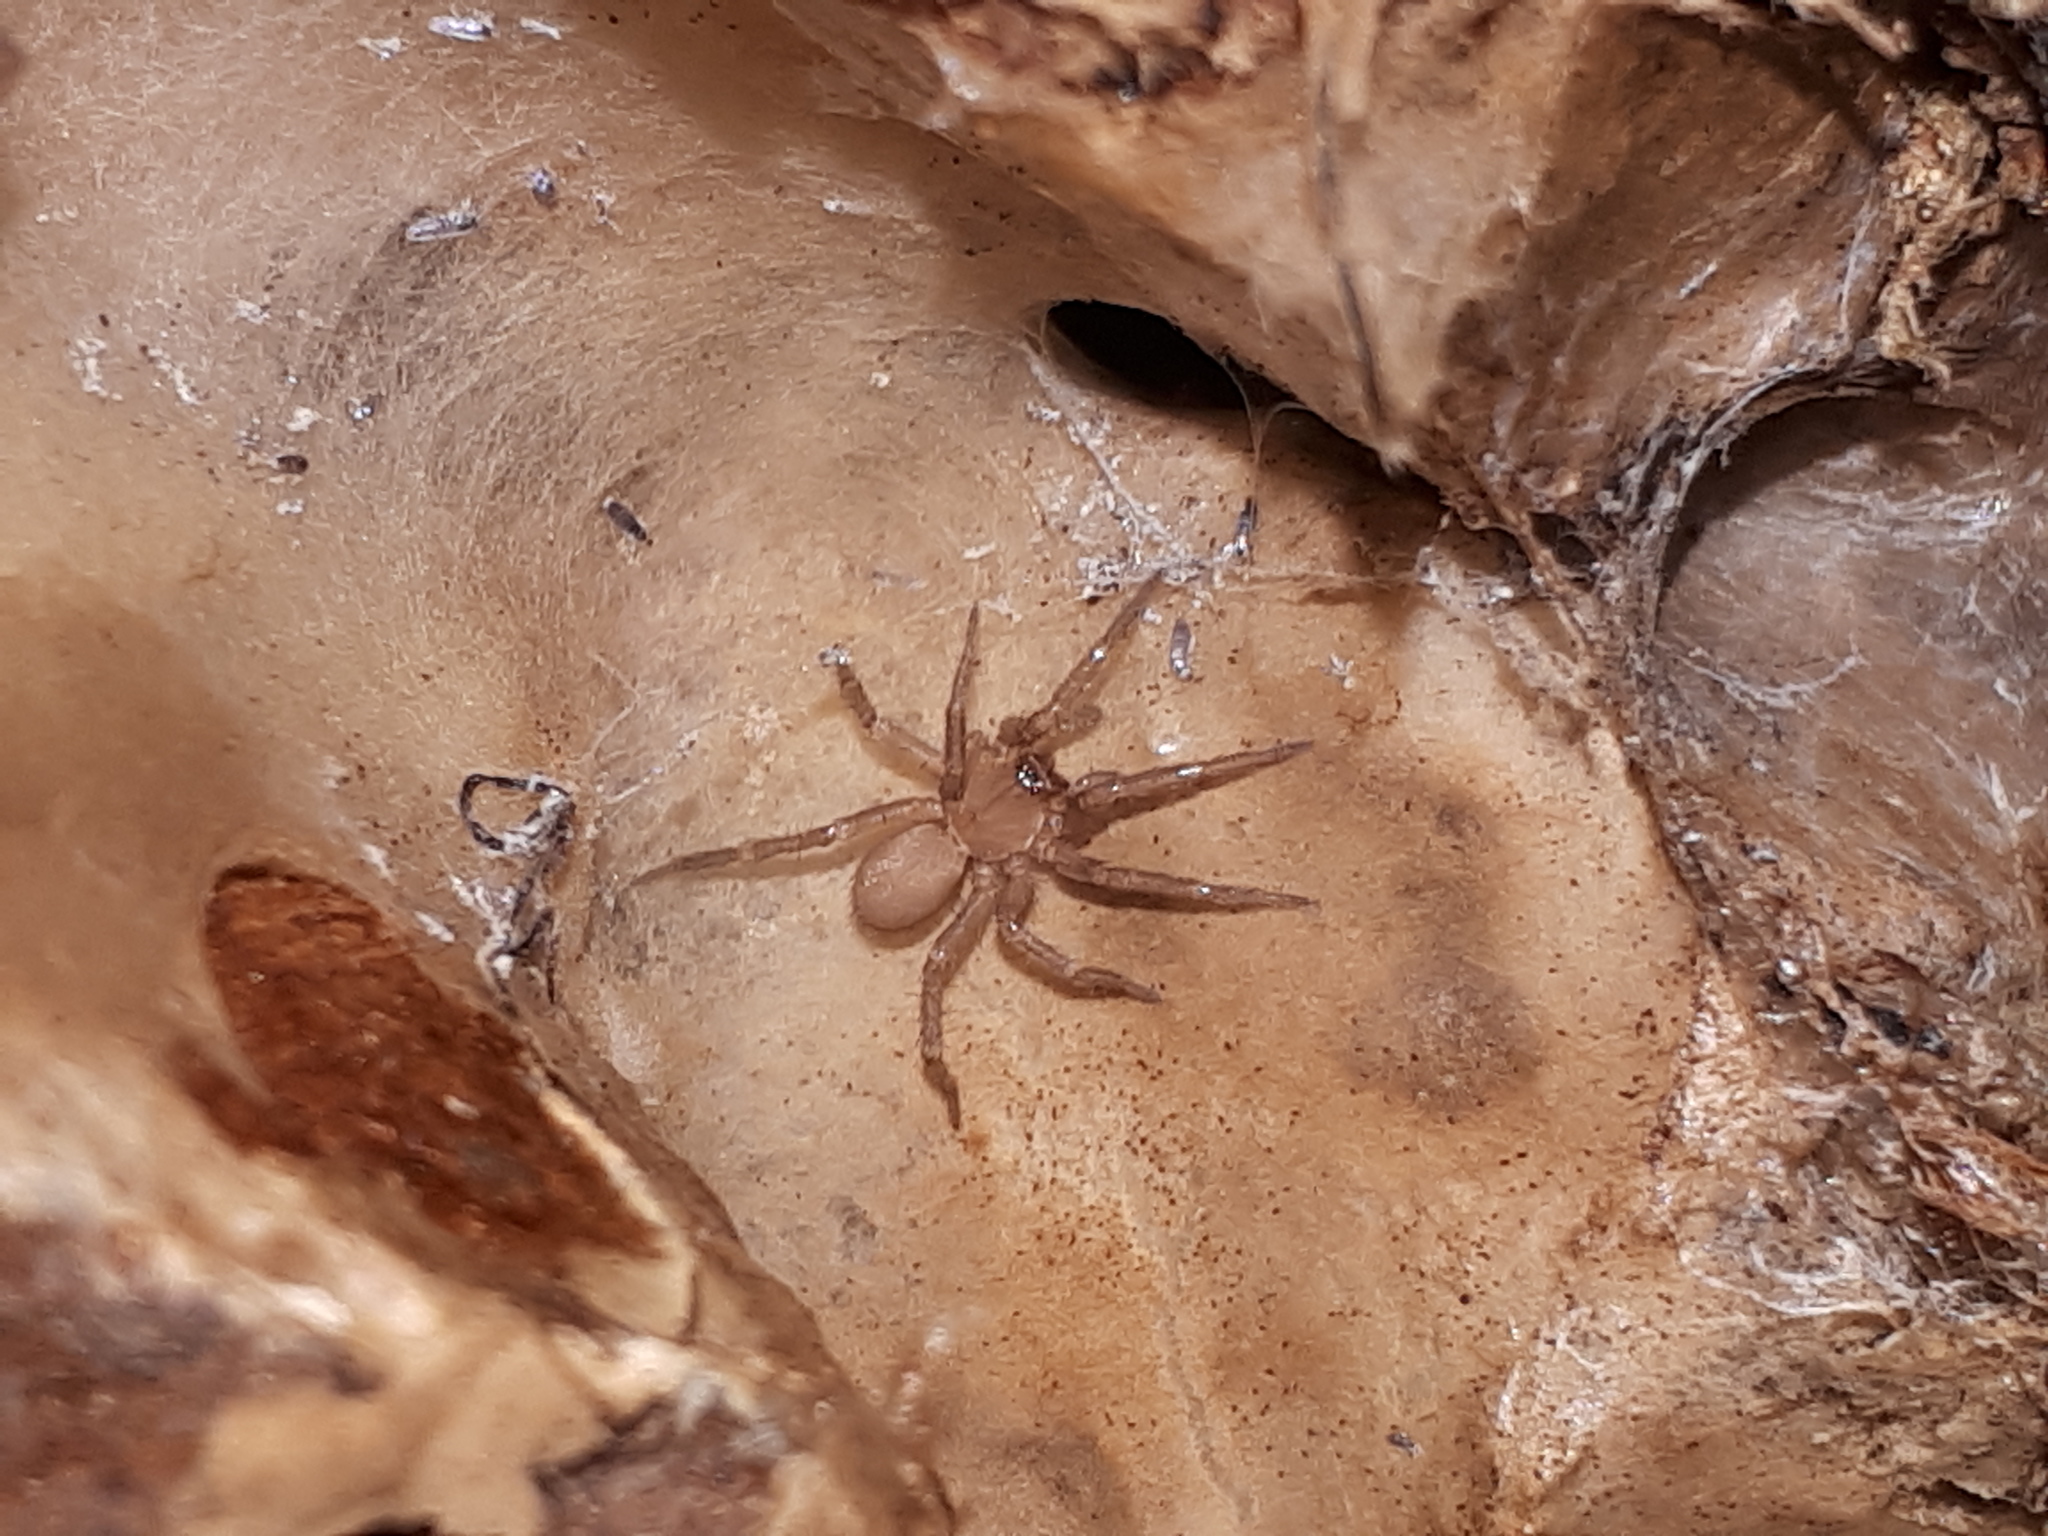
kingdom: Animalia
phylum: Arthropoda
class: Arachnida
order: Araneae
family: Hahniidae
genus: Cicurina
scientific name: Cicurina cicur
